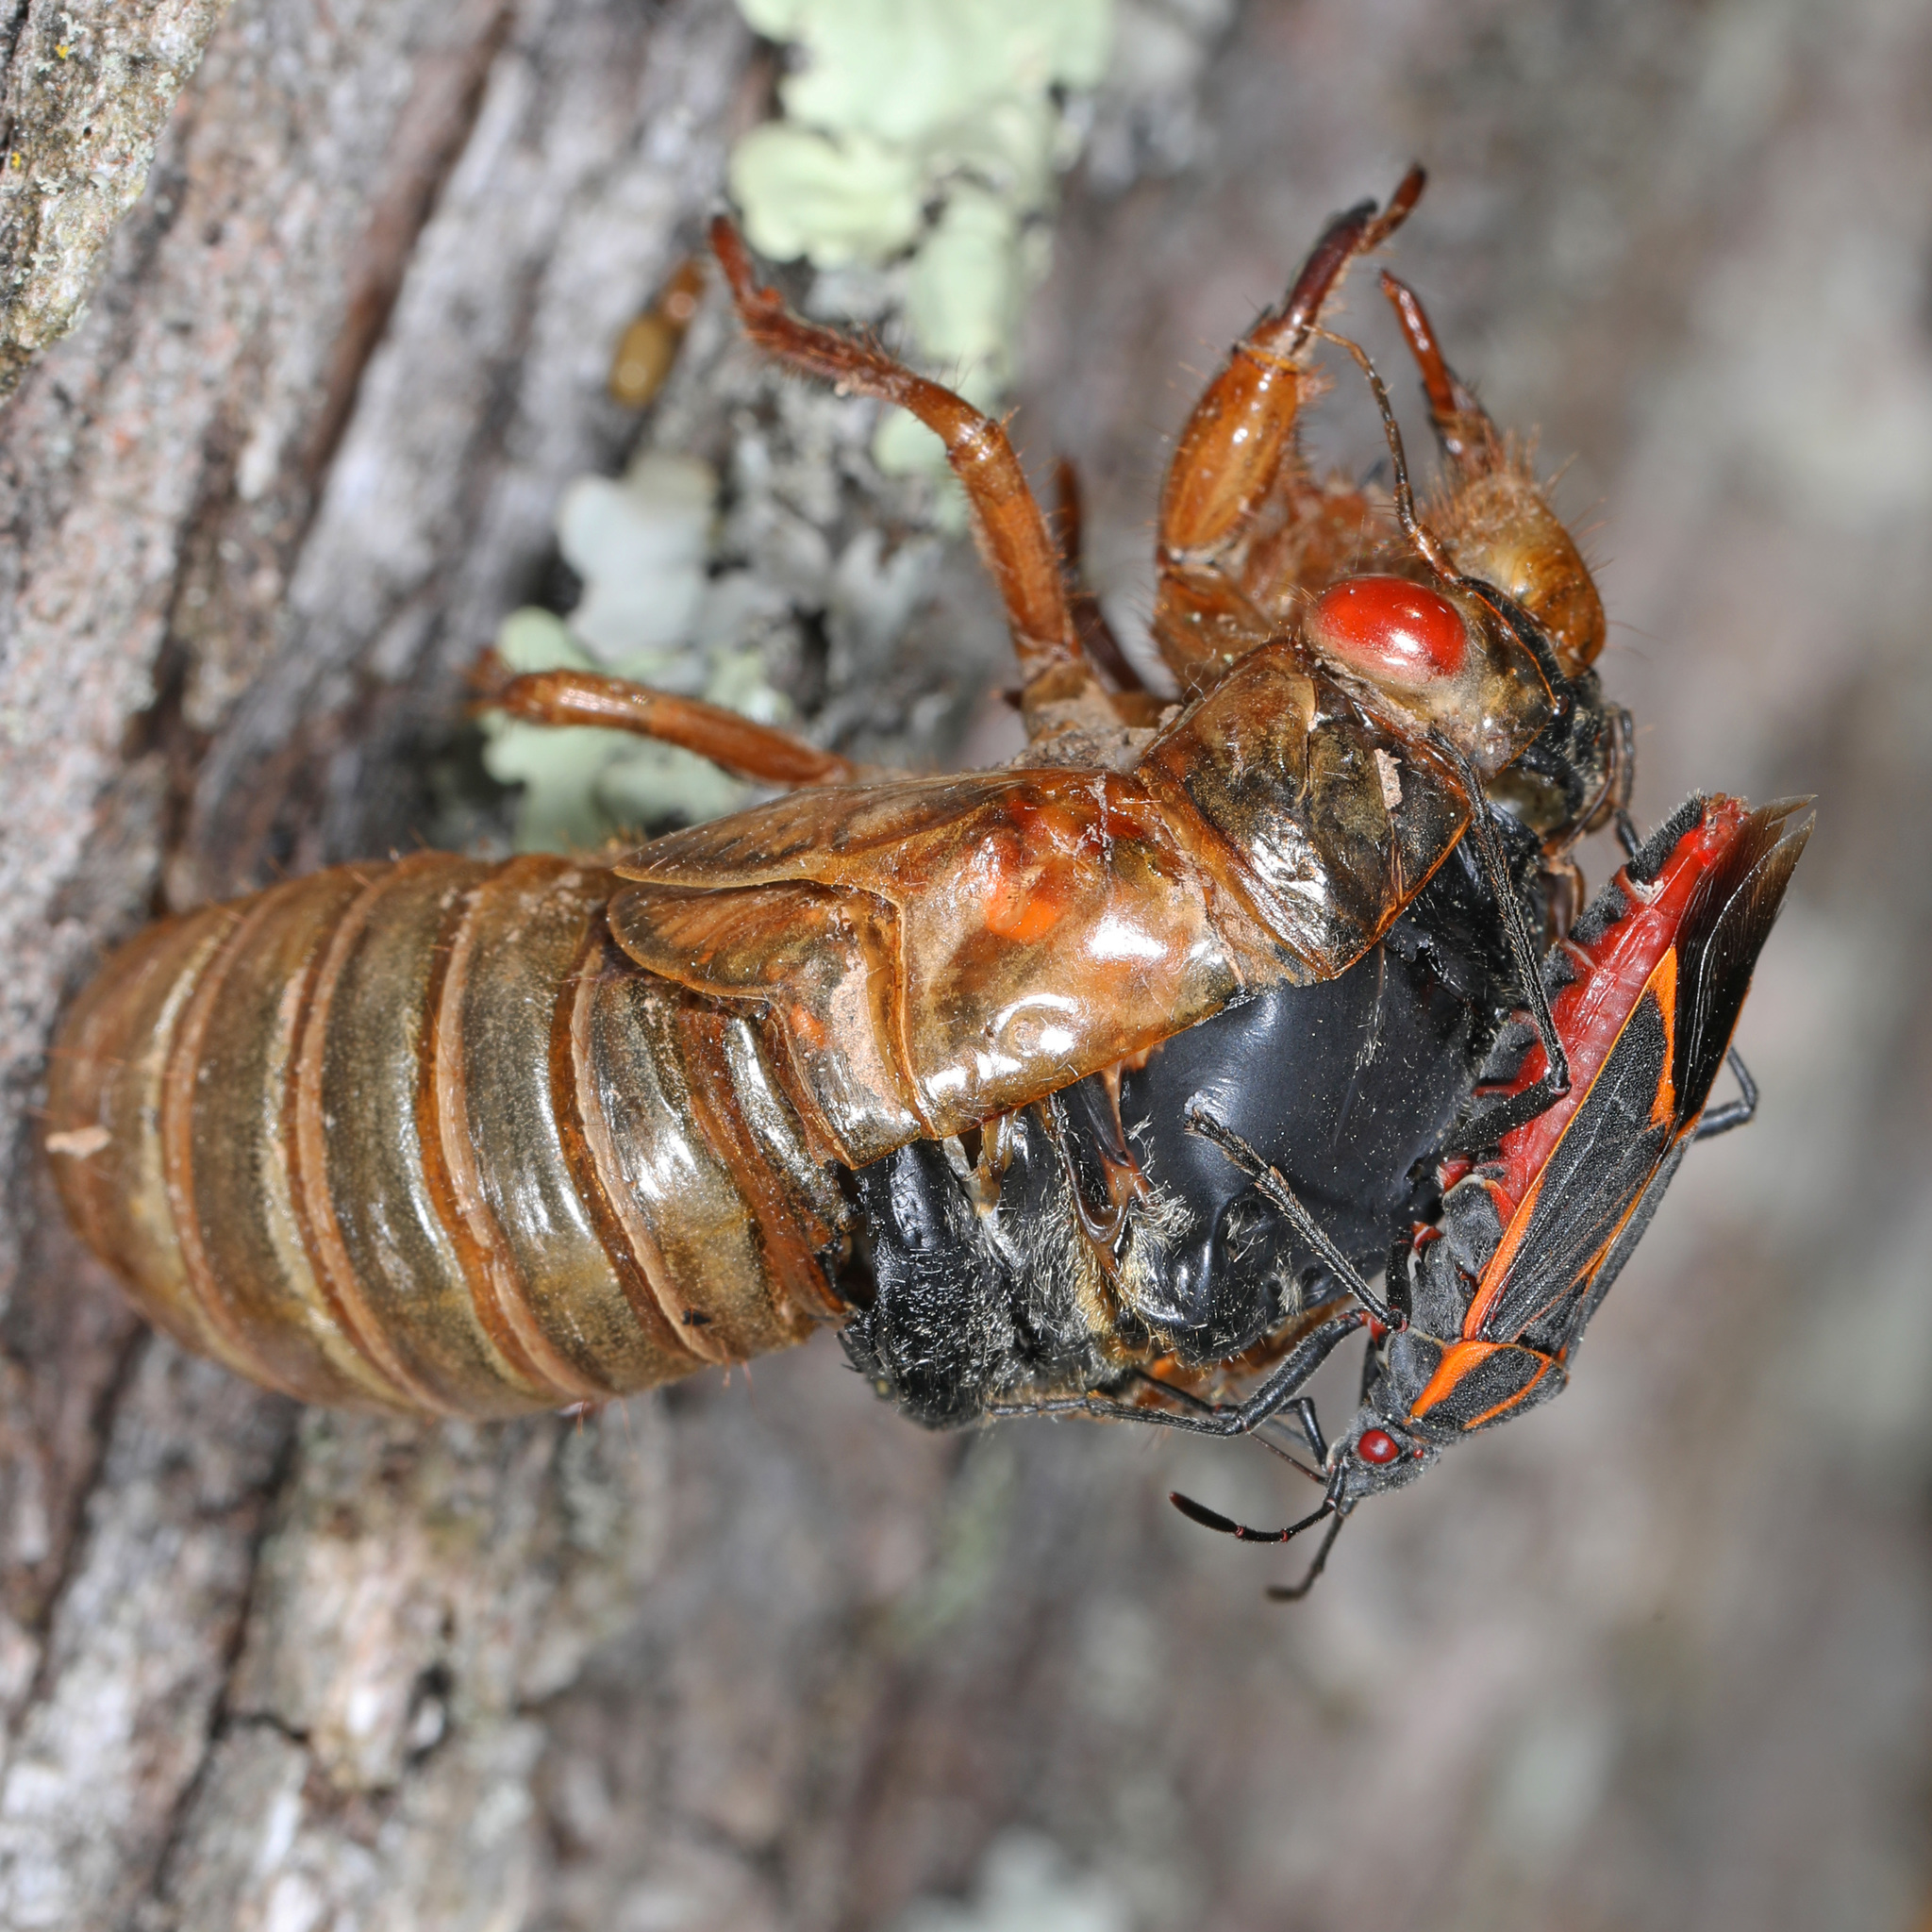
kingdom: Animalia
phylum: Arthropoda
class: Insecta
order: Hemiptera
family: Rhopalidae
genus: Boisea
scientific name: Boisea trivittata
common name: Boxelder bug
